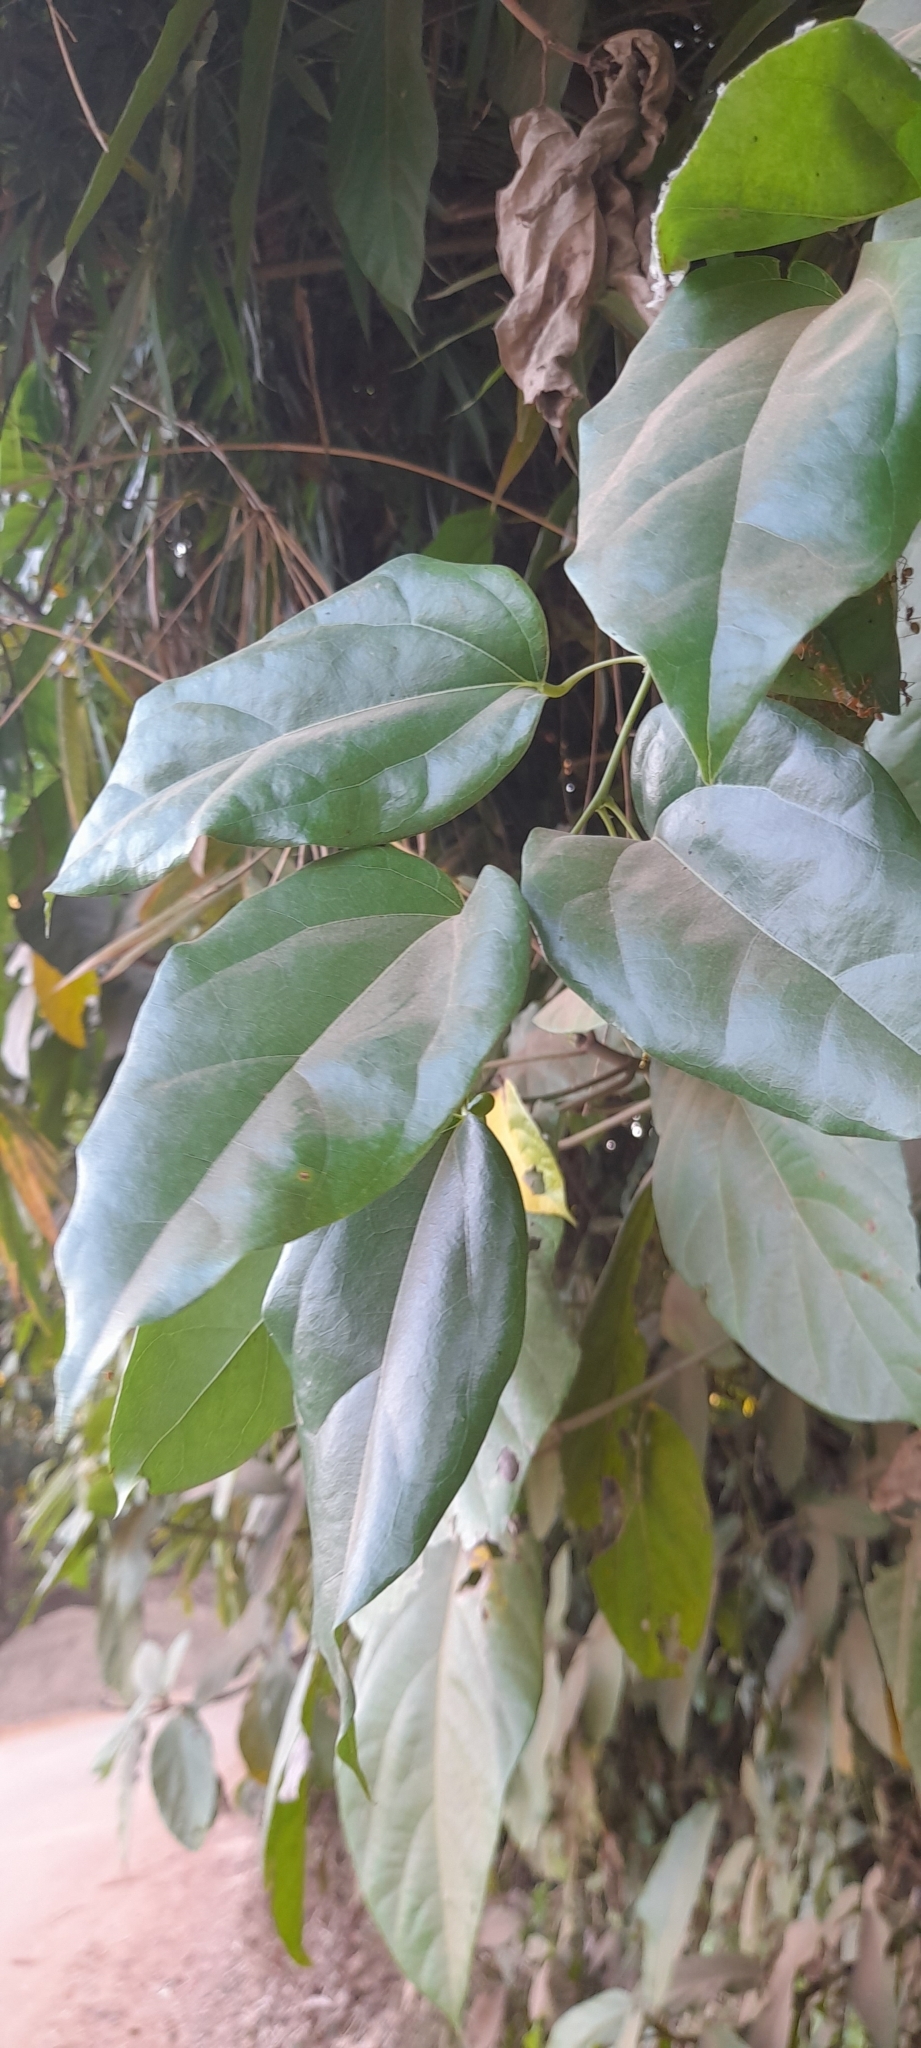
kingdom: Plantae
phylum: Tracheophyta
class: Magnoliopsida
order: Ranunculales
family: Menispermaceae
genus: Tiliacora
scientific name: Tiliacora acuminata
